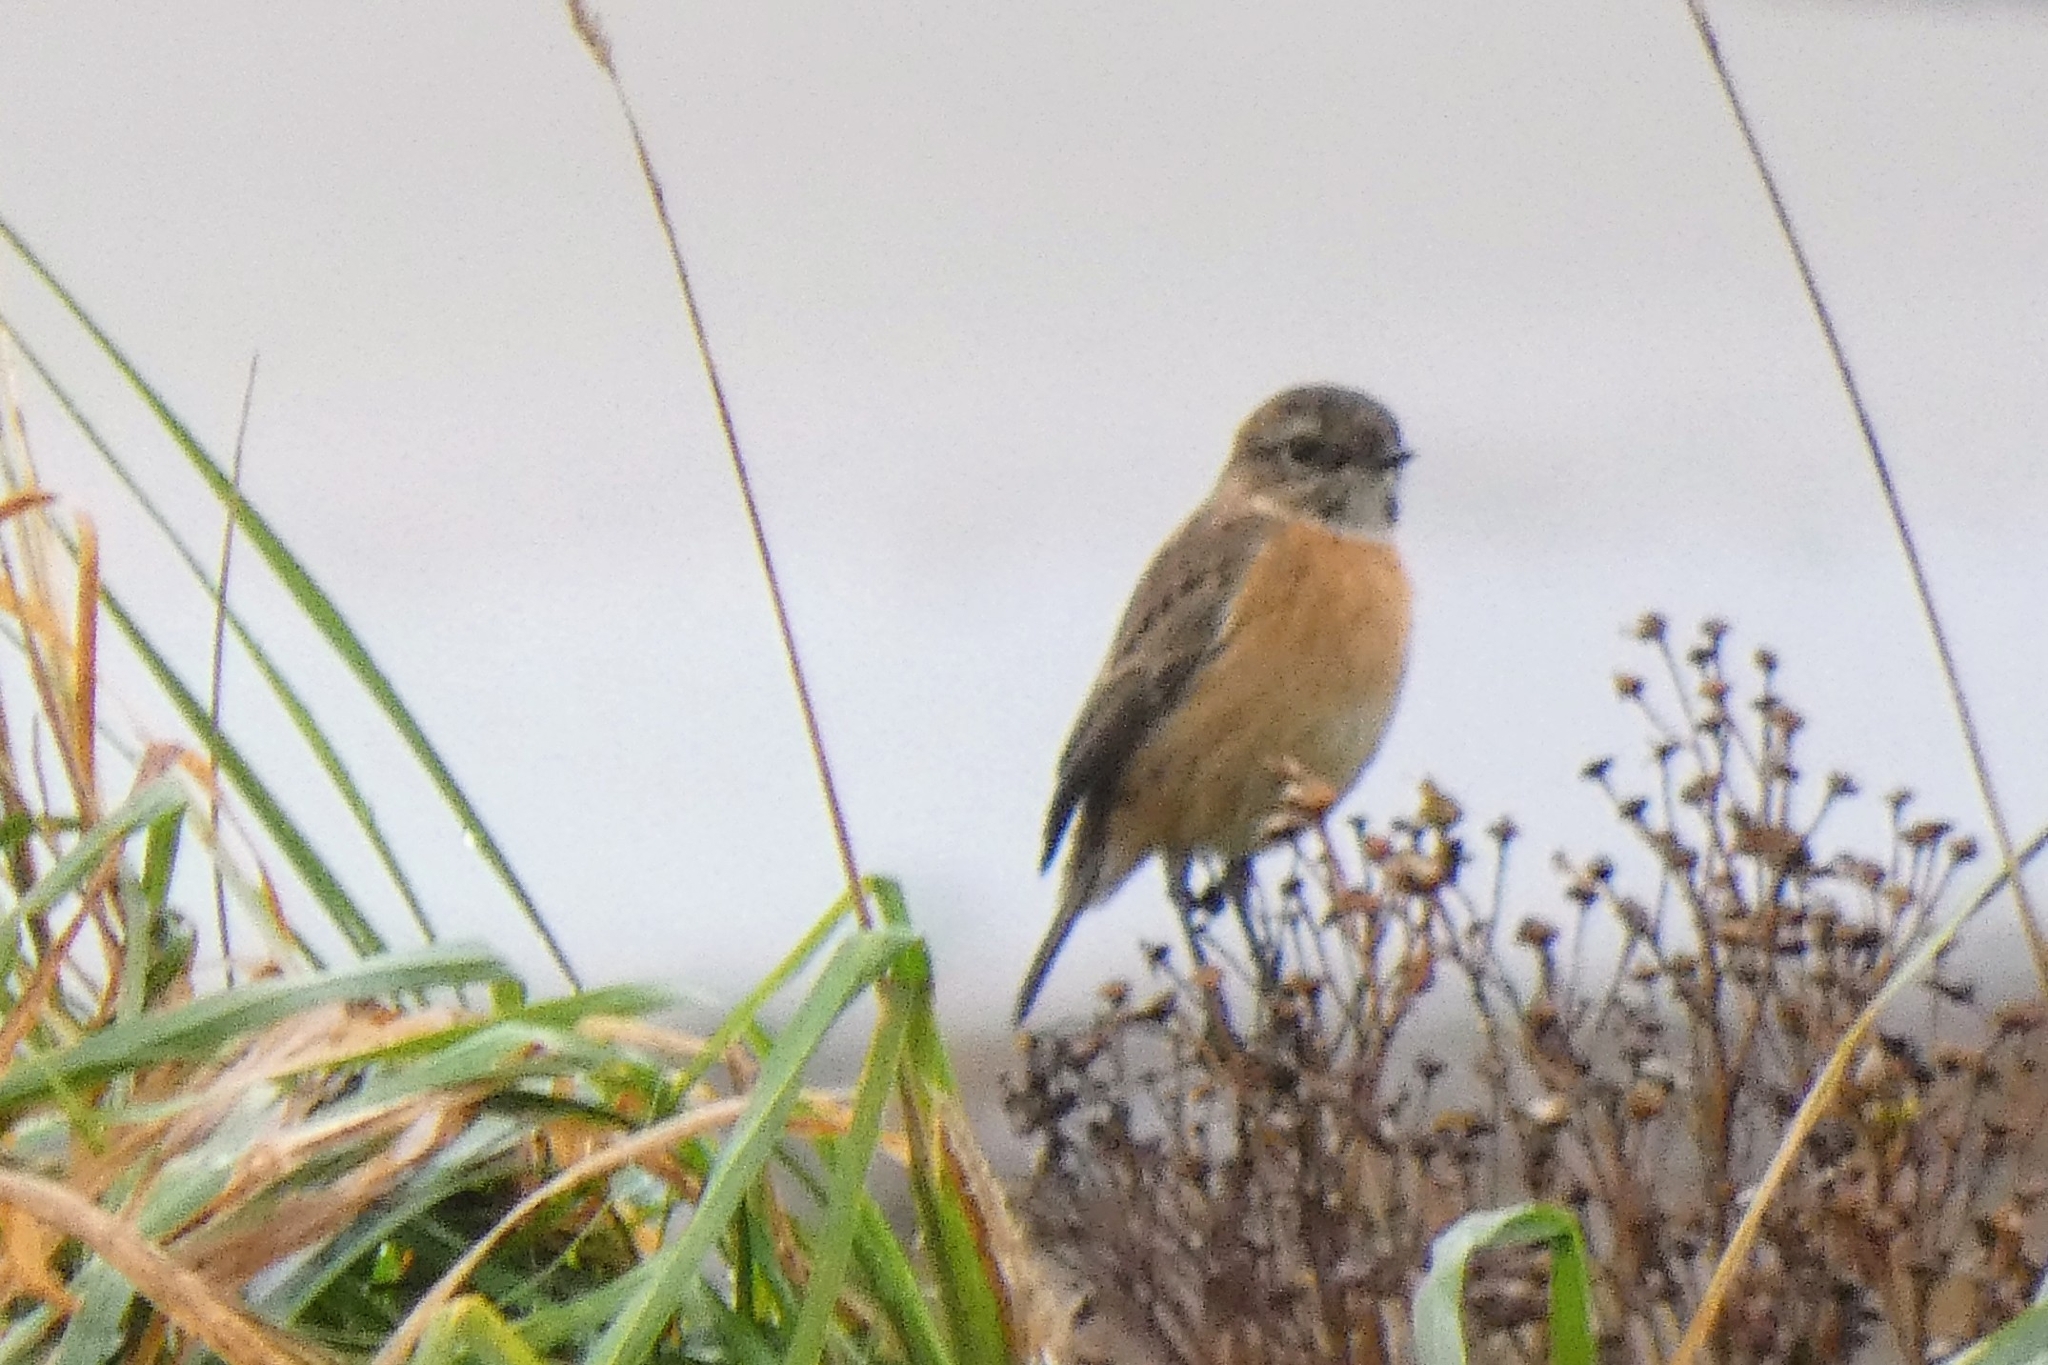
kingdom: Animalia
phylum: Chordata
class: Aves
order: Passeriformes
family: Muscicapidae
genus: Saxicola
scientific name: Saxicola rubicola
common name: European stonechat
